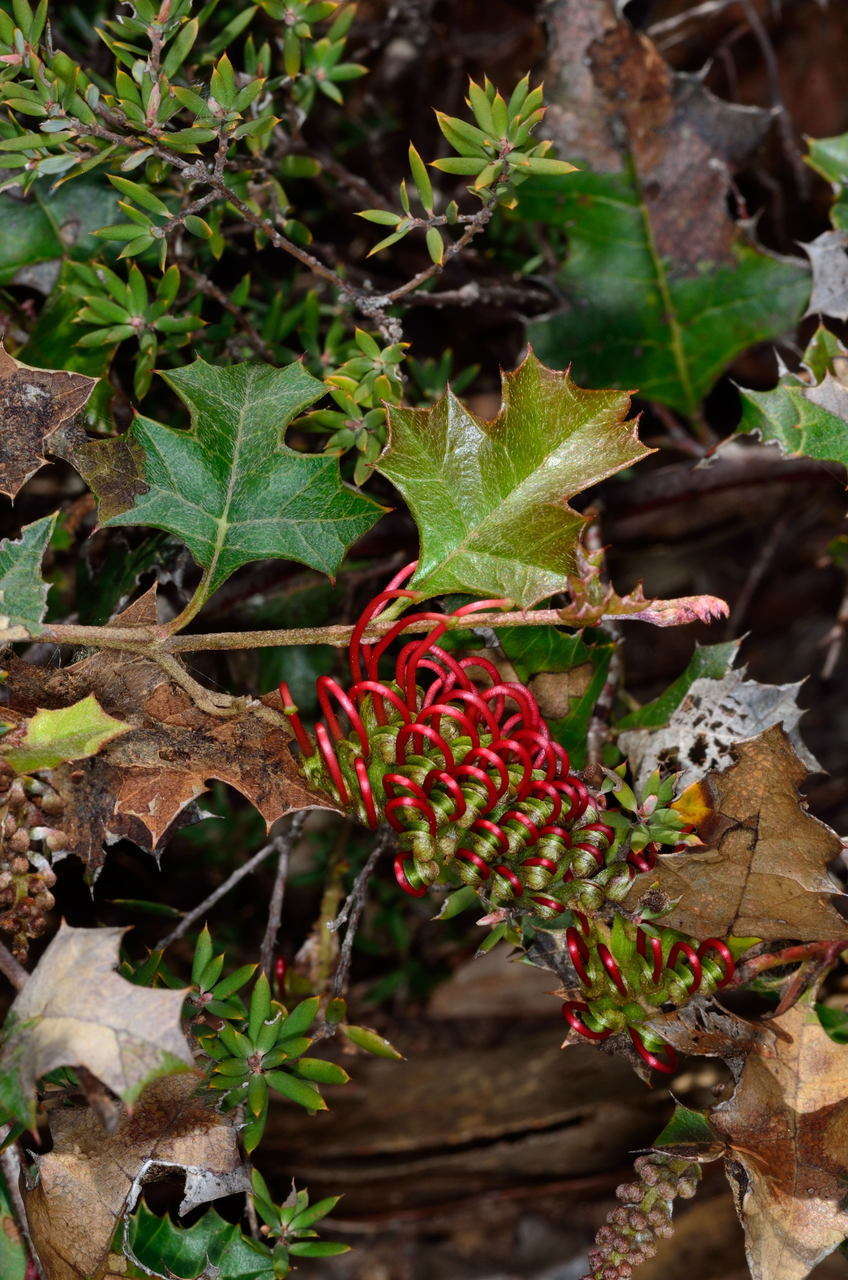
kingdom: Plantae
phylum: Tracheophyta
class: Magnoliopsida
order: Proteales
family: Proteaceae
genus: Grevillea
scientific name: Grevillea steiglitziana
